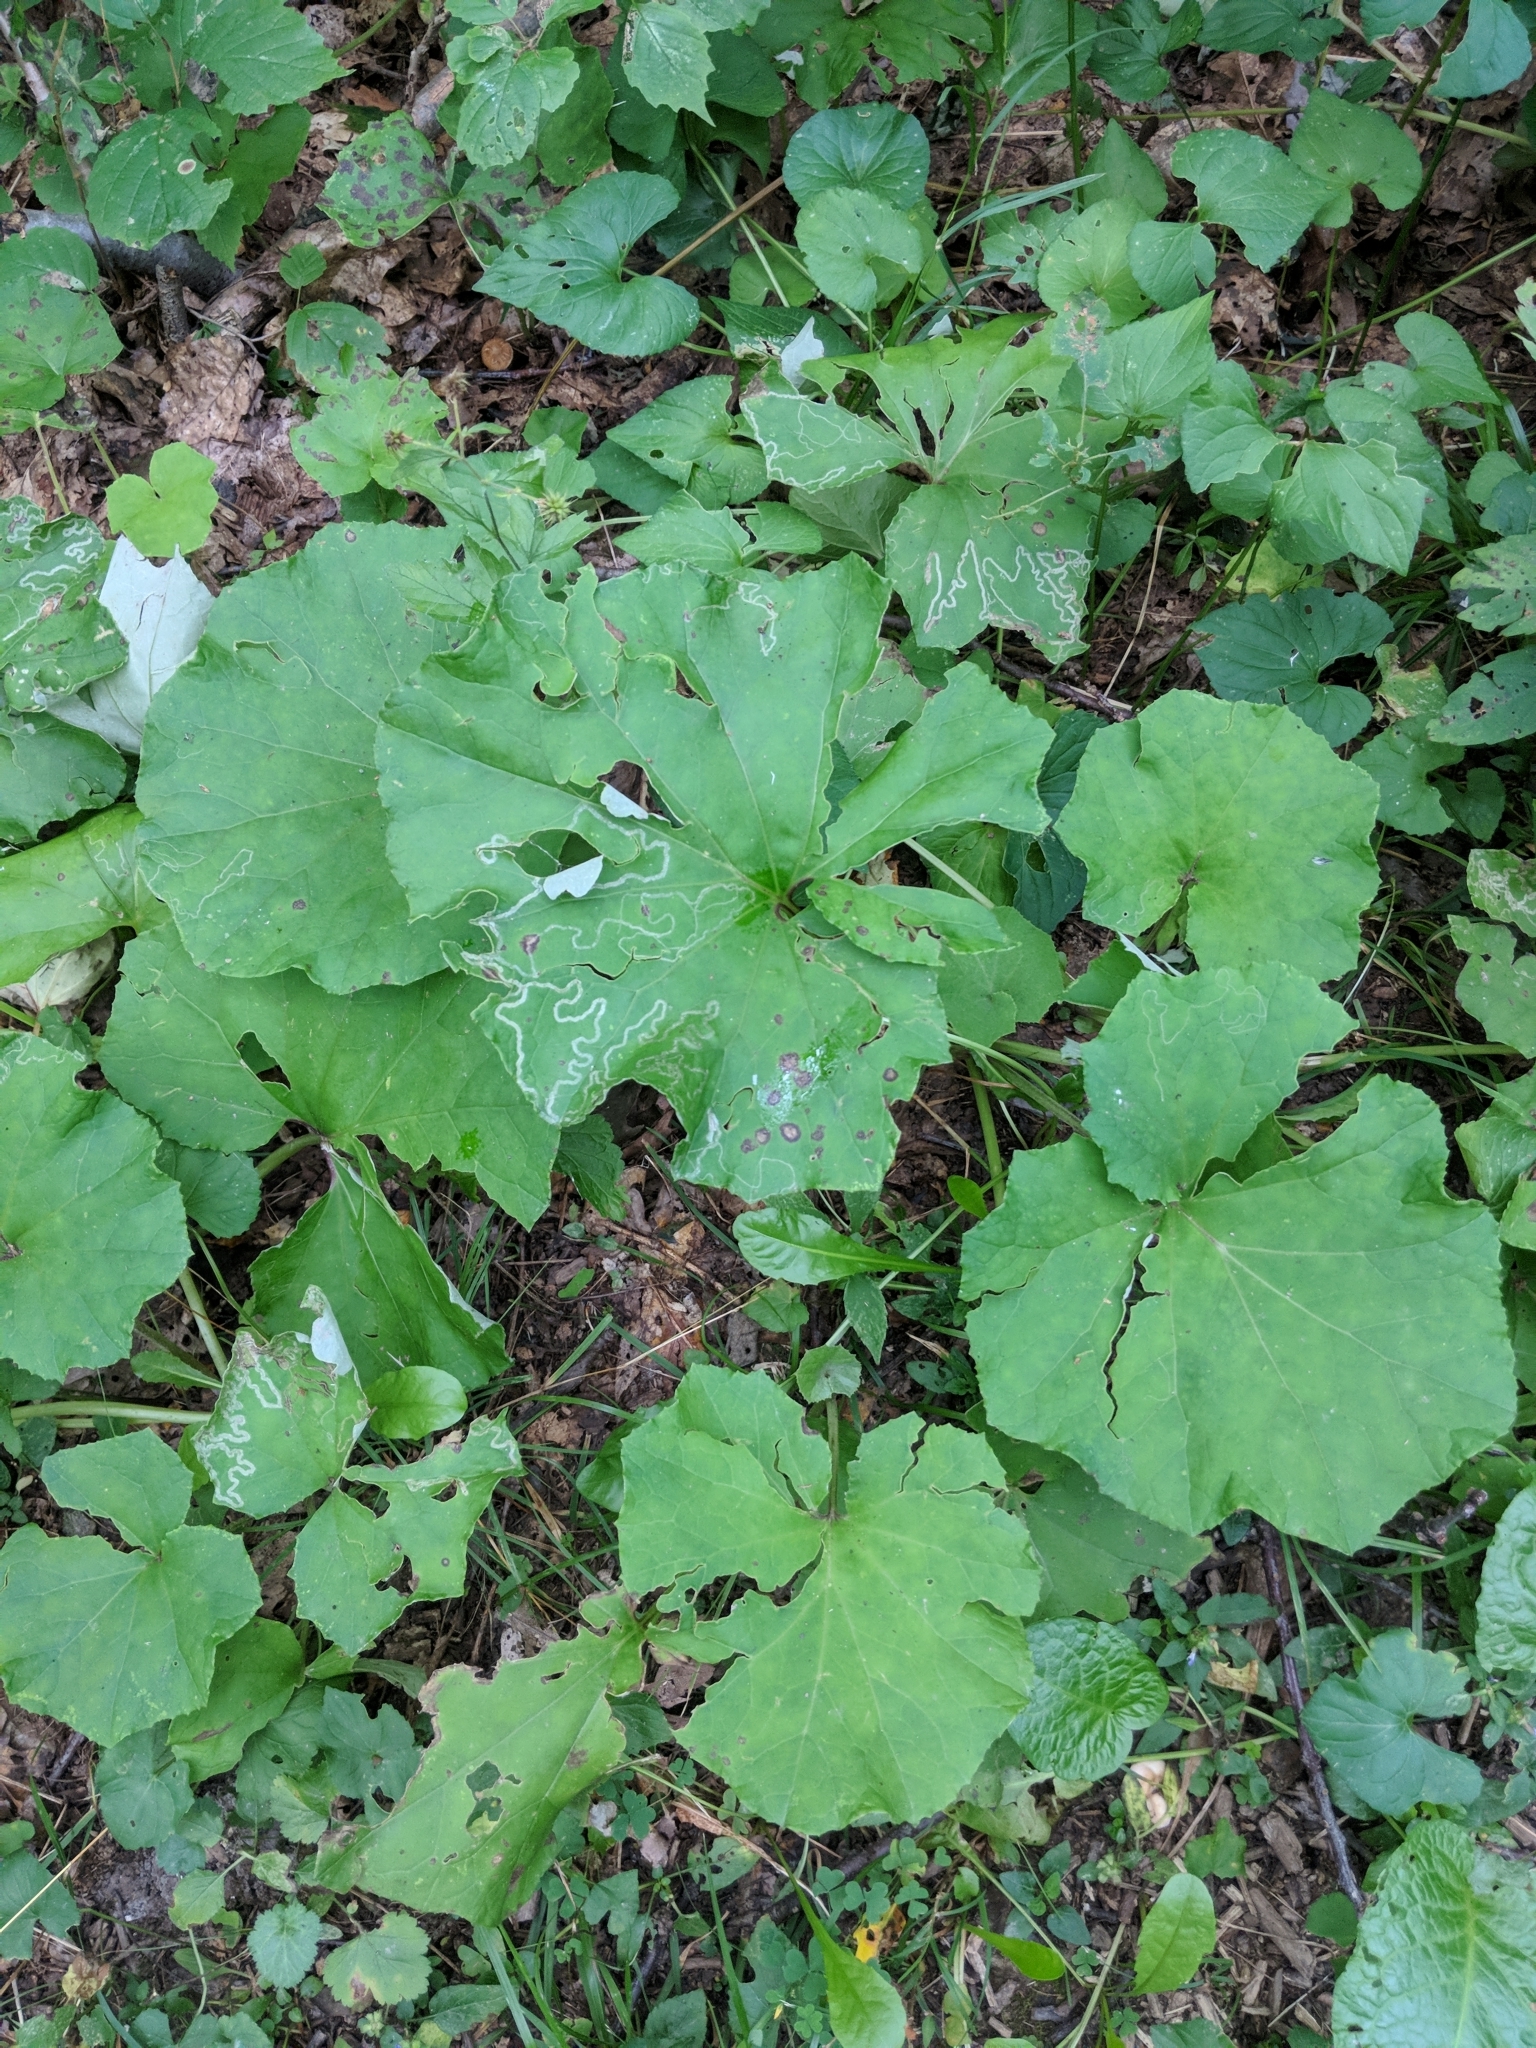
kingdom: Plantae
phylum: Tracheophyta
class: Magnoliopsida
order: Asterales
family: Asteraceae
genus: Tussilago
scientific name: Tussilago farfara
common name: Coltsfoot
